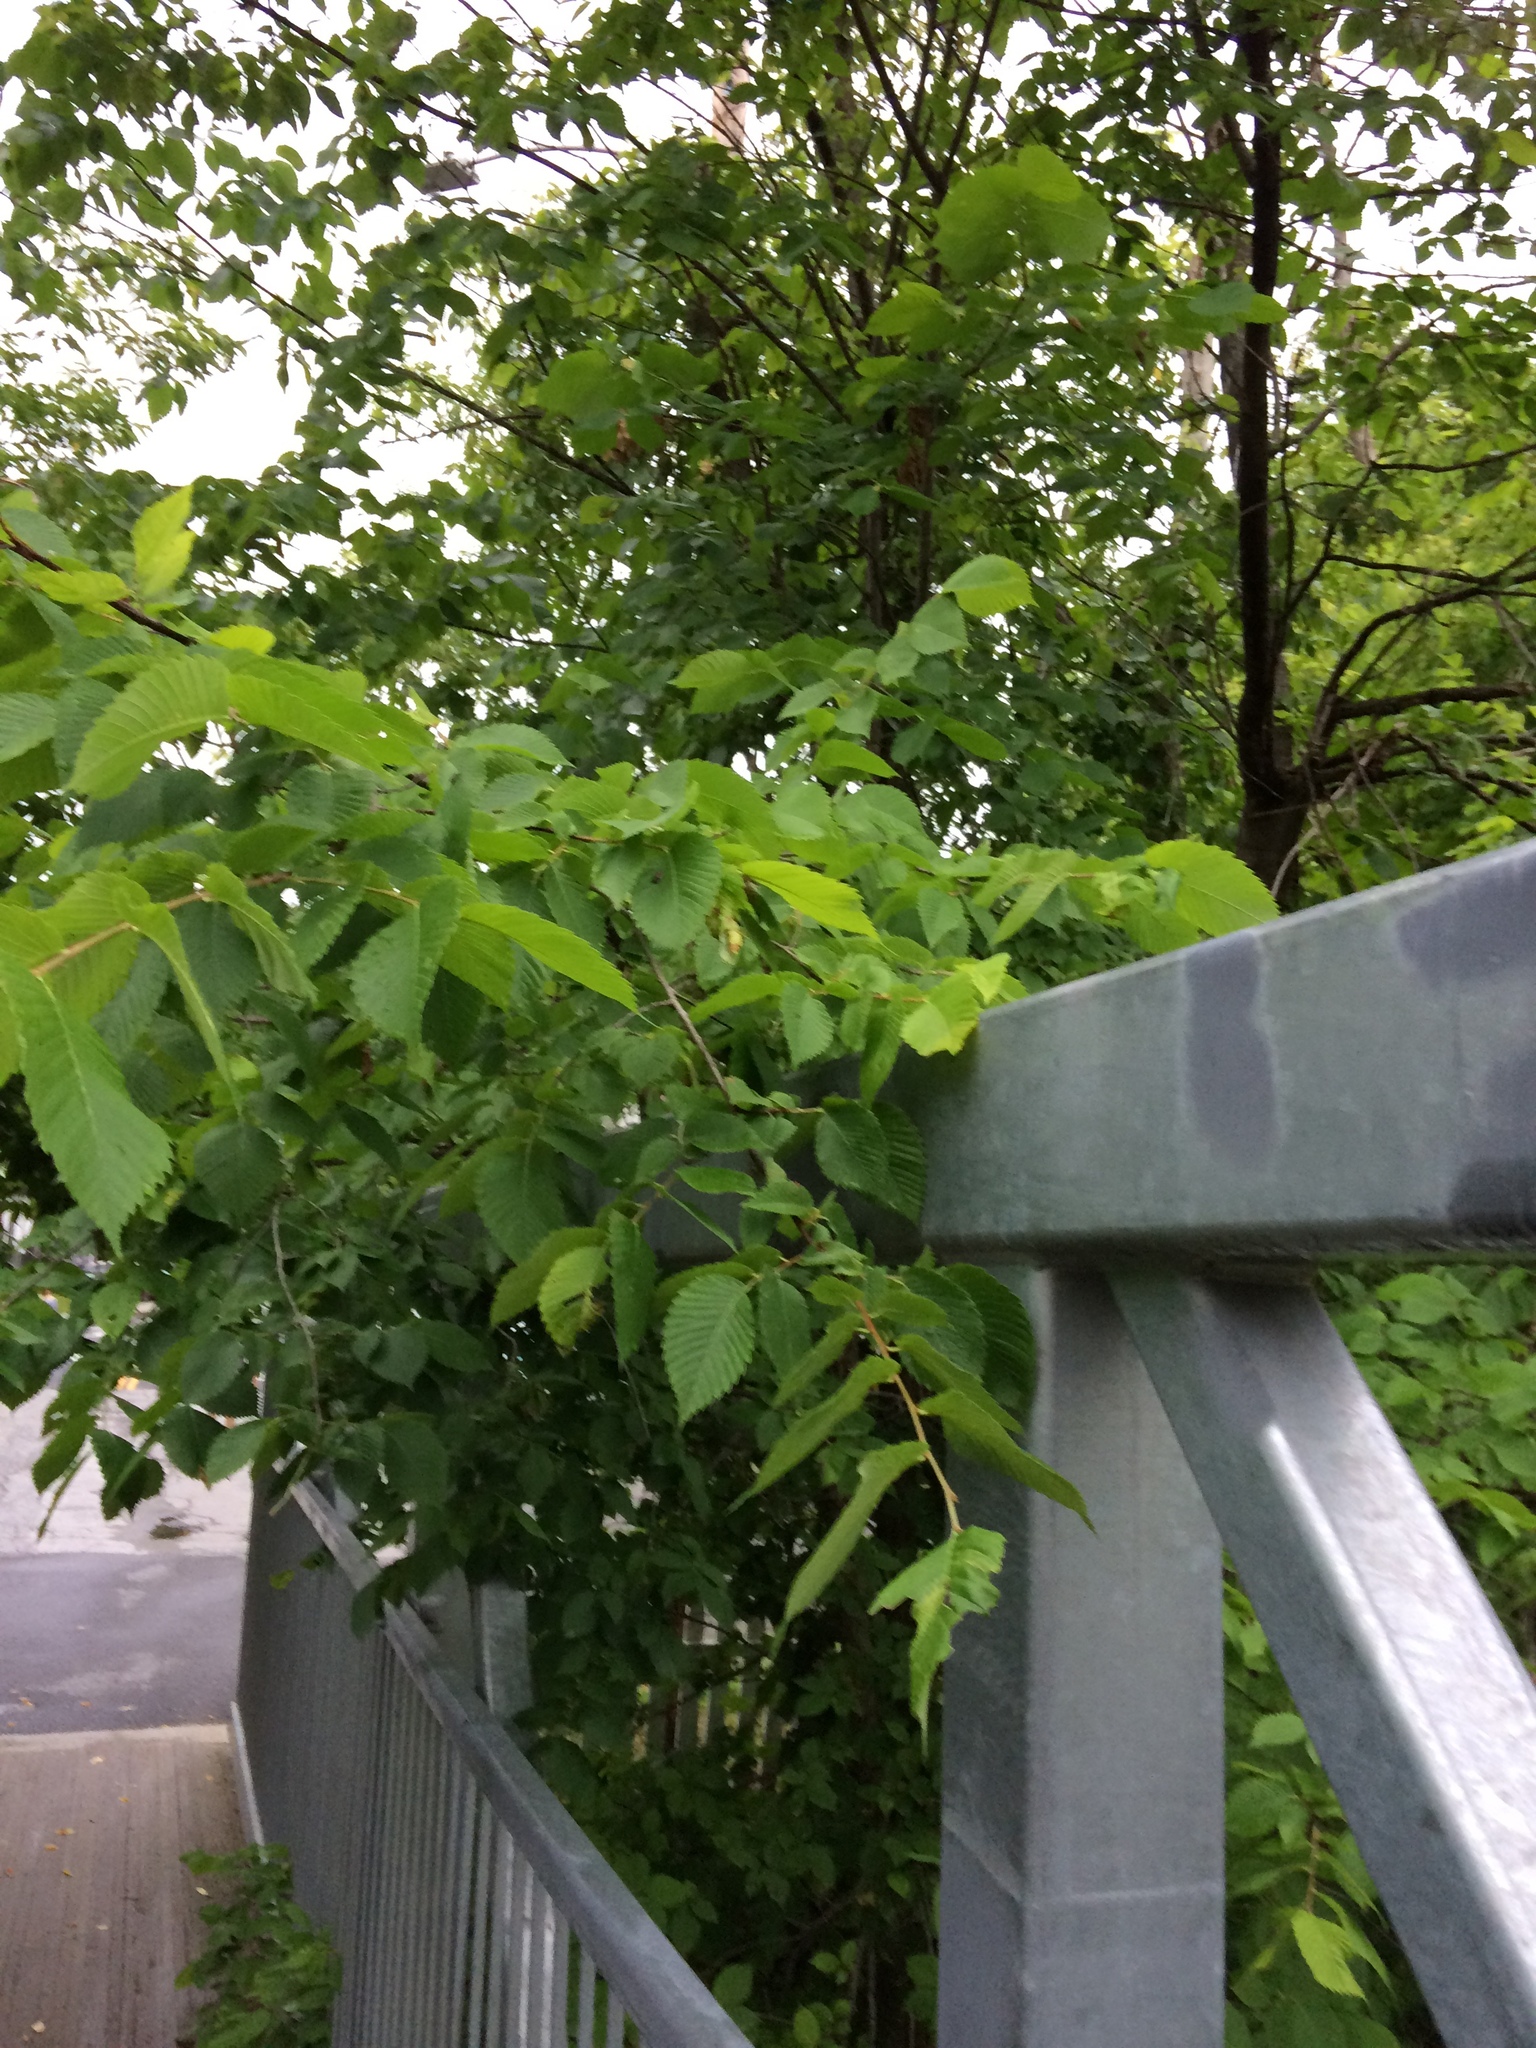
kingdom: Plantae
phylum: Tracheophyta
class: Magnoliopsida
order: Rosales
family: Ulmaceae
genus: Ulmus
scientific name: Ulmus americana
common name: American elm
